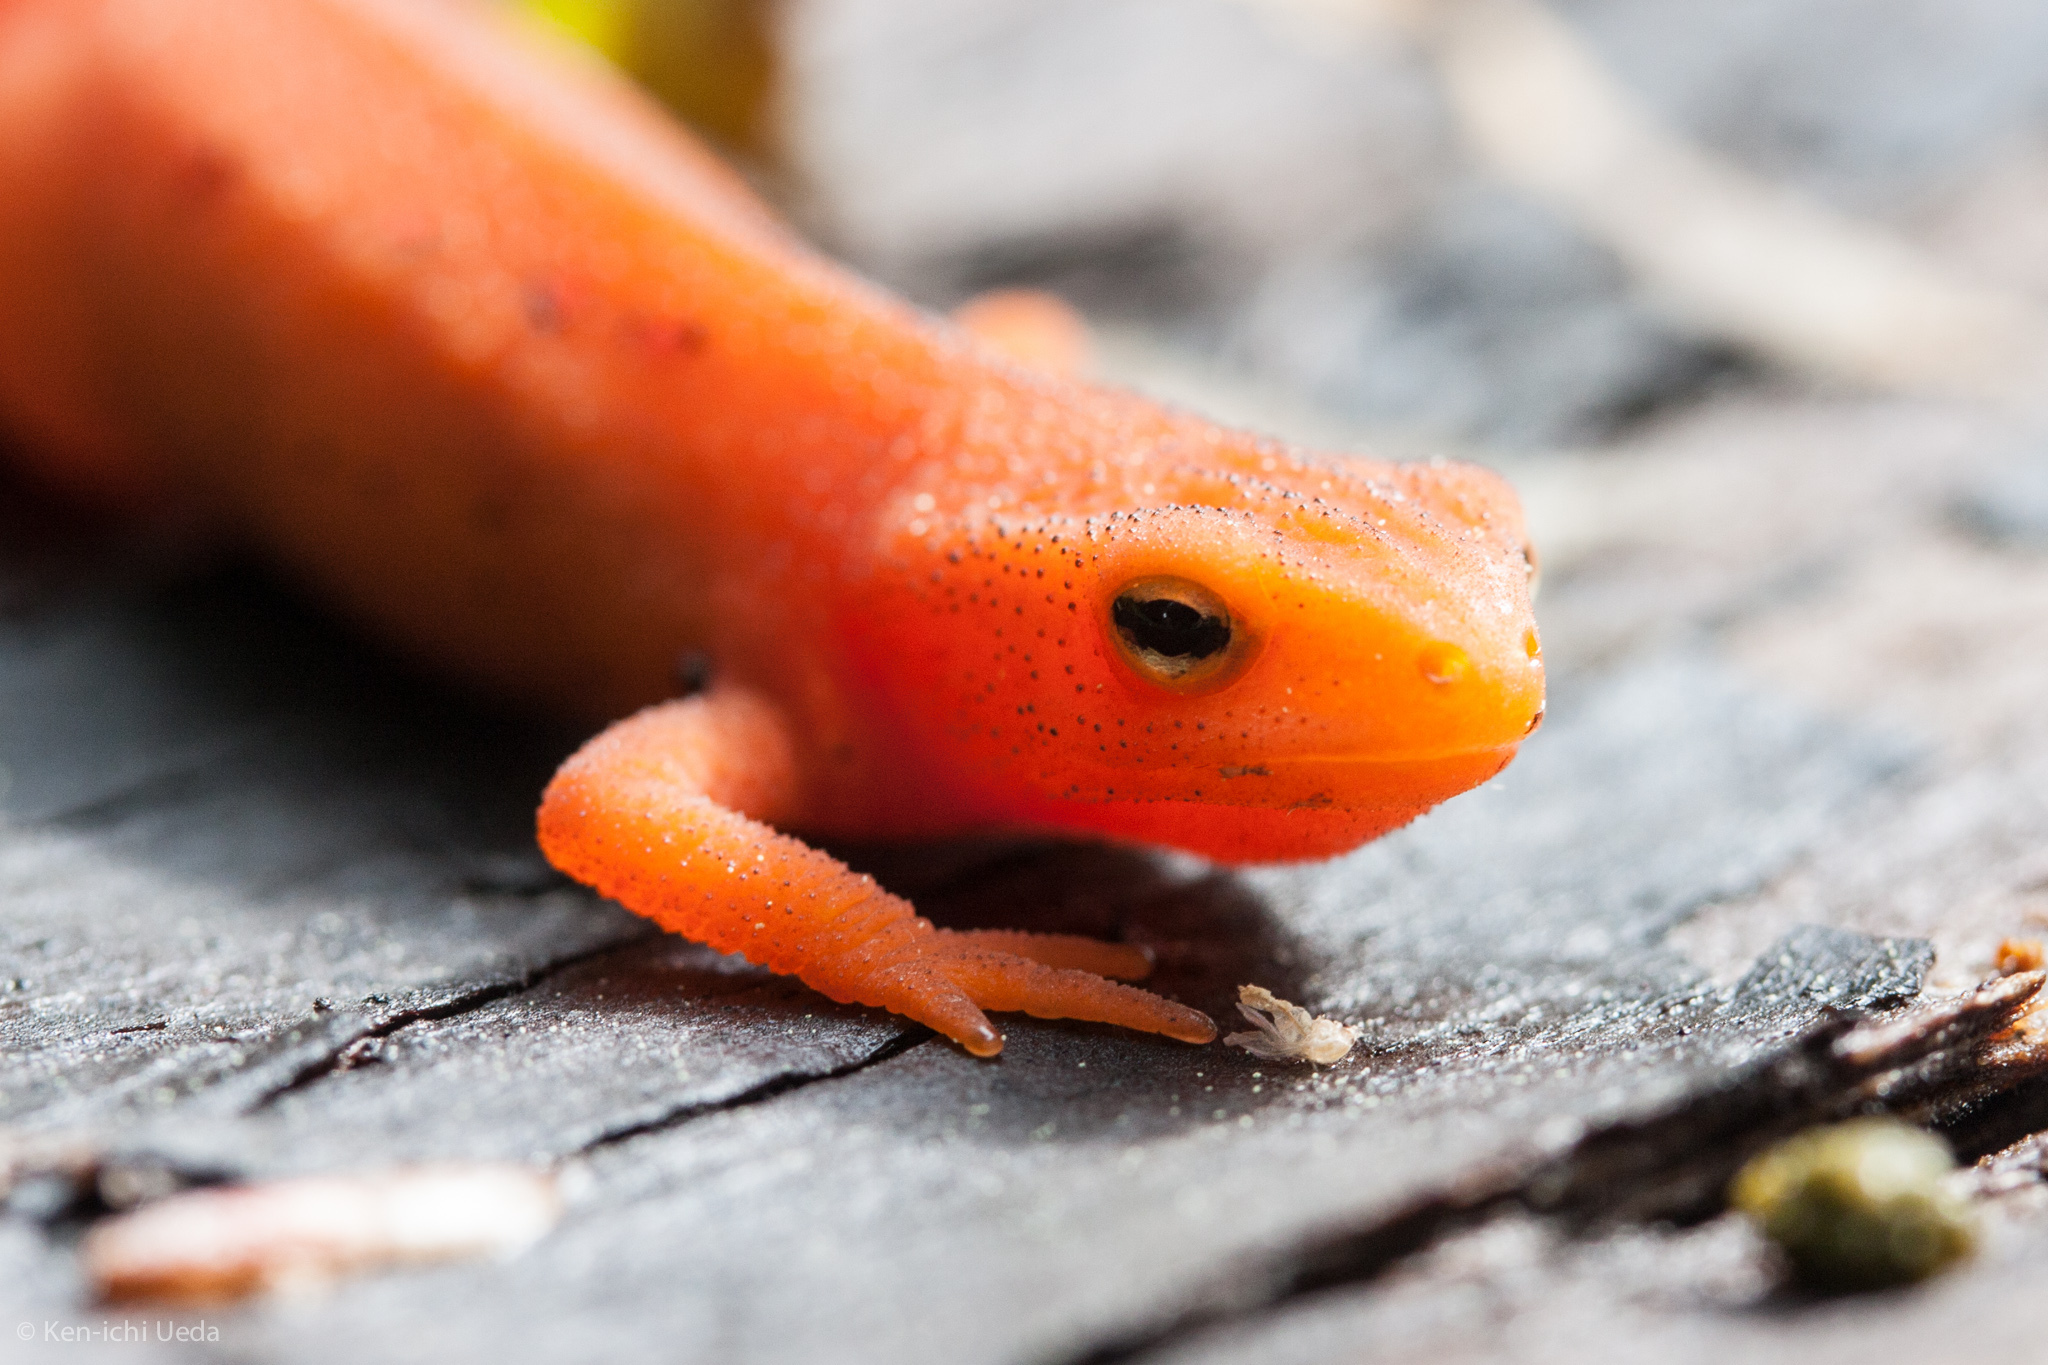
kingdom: Animalia
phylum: Chordata
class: Amphibia
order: Caudata
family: Salamandridae
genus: Notophthalmus
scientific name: Notophthalmus viridescens
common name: Eastern newt
